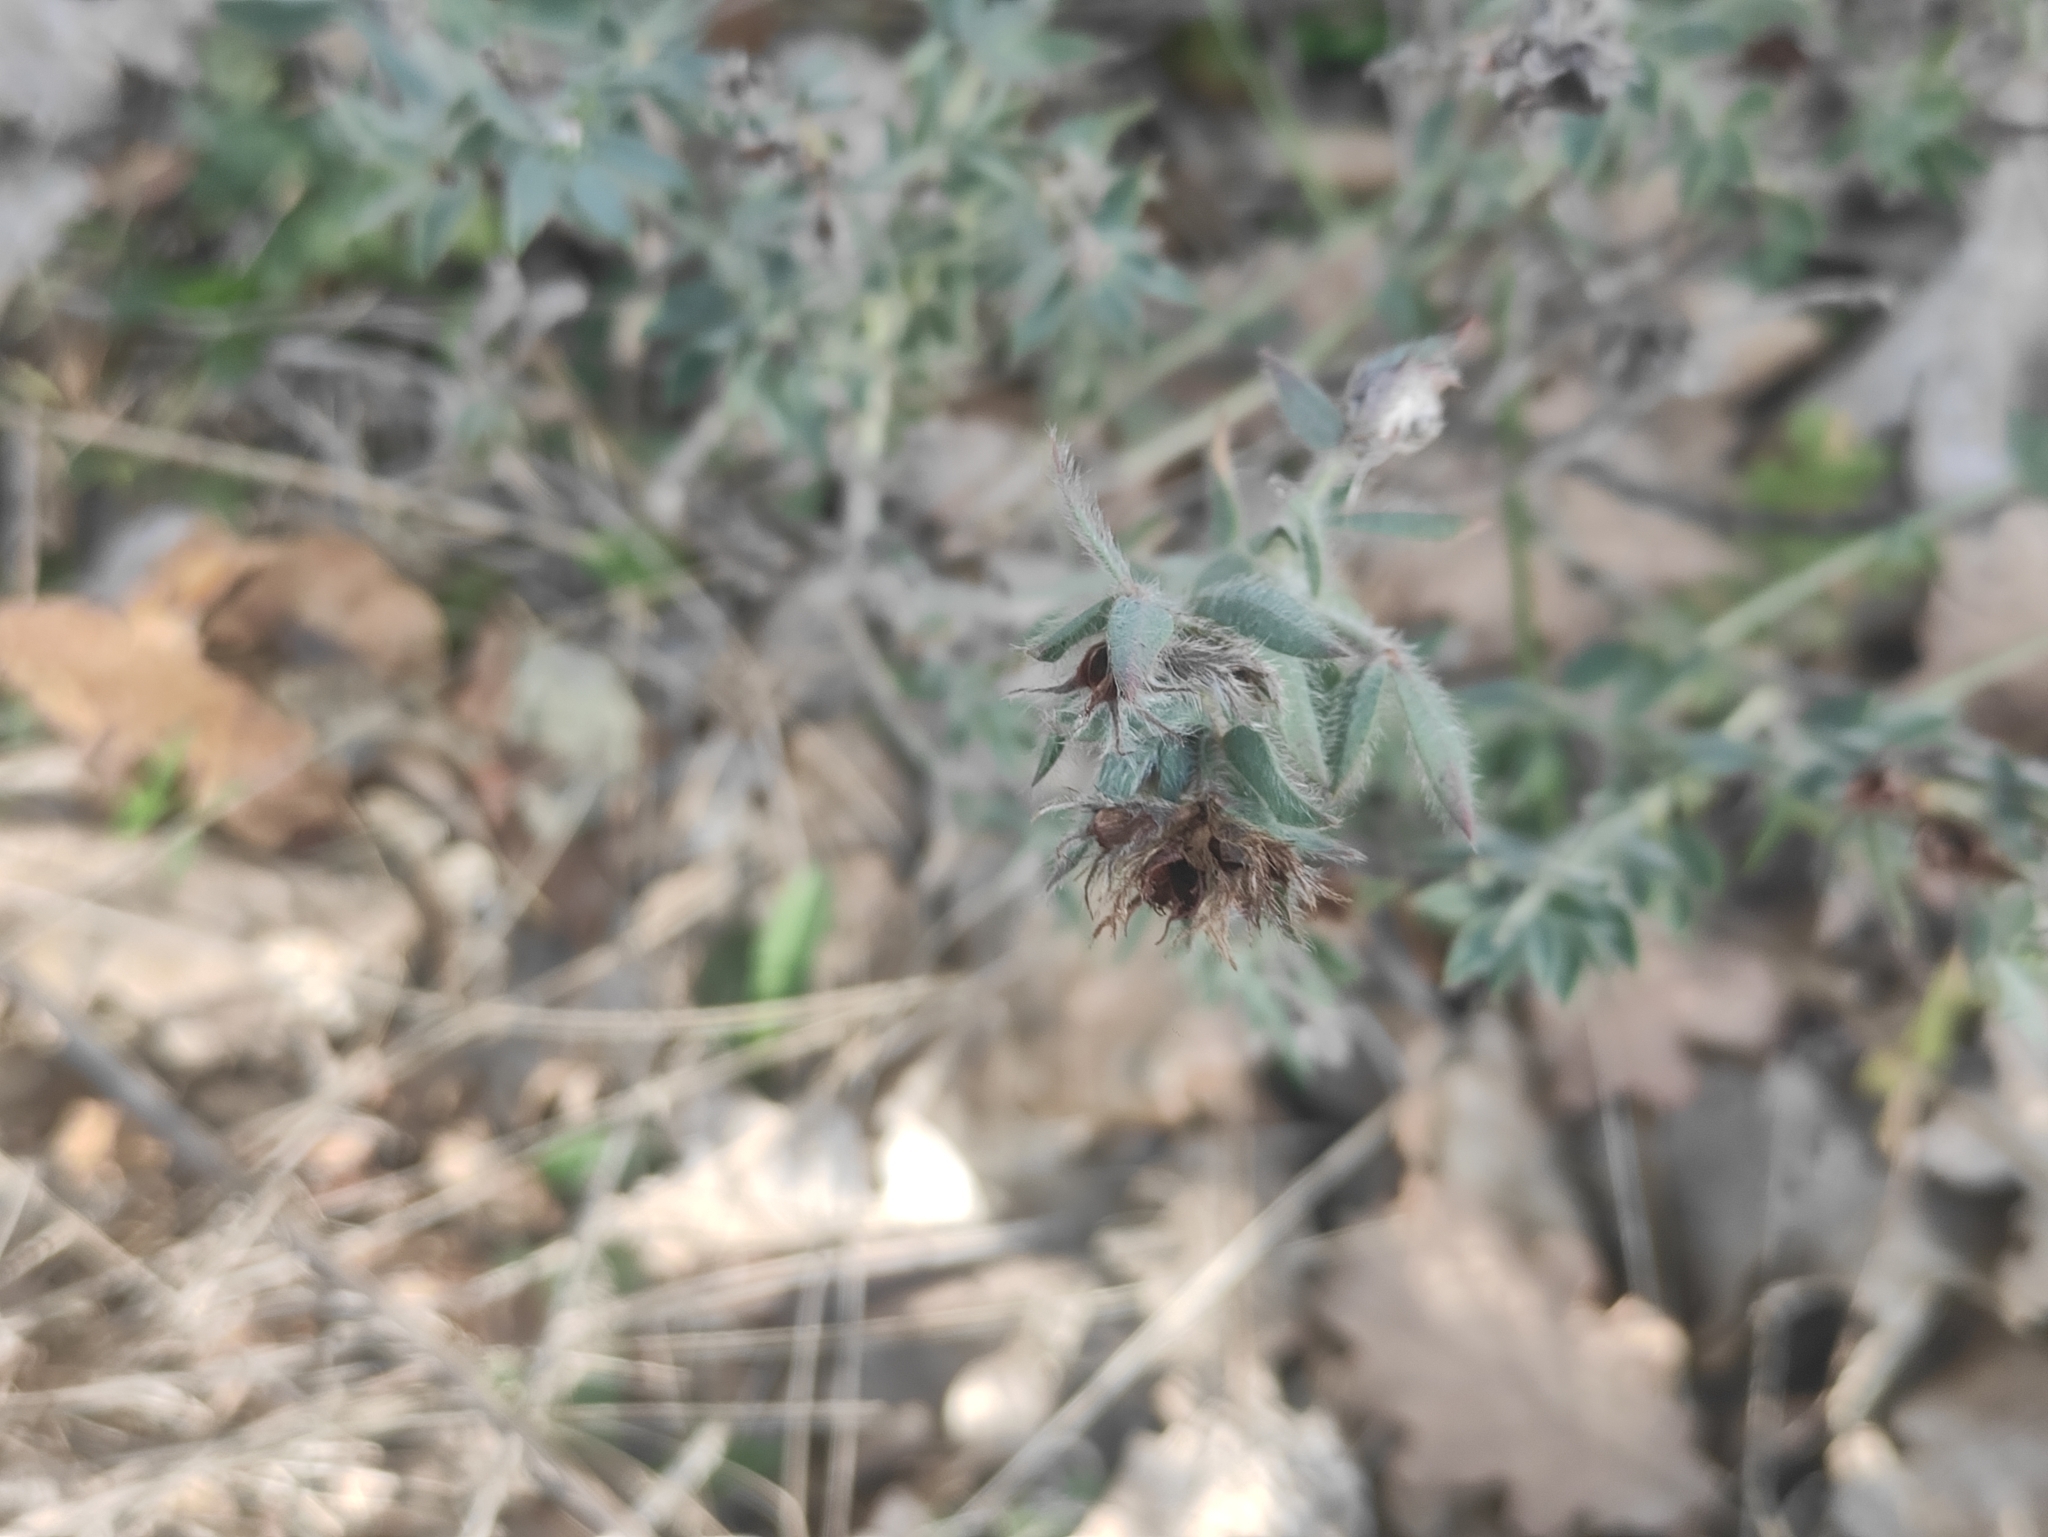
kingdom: Plantae
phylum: Tracheophyta
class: Magnoliopsida
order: Fabales
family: Fabaceae
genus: Lotus
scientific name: Lotus hirsutus
